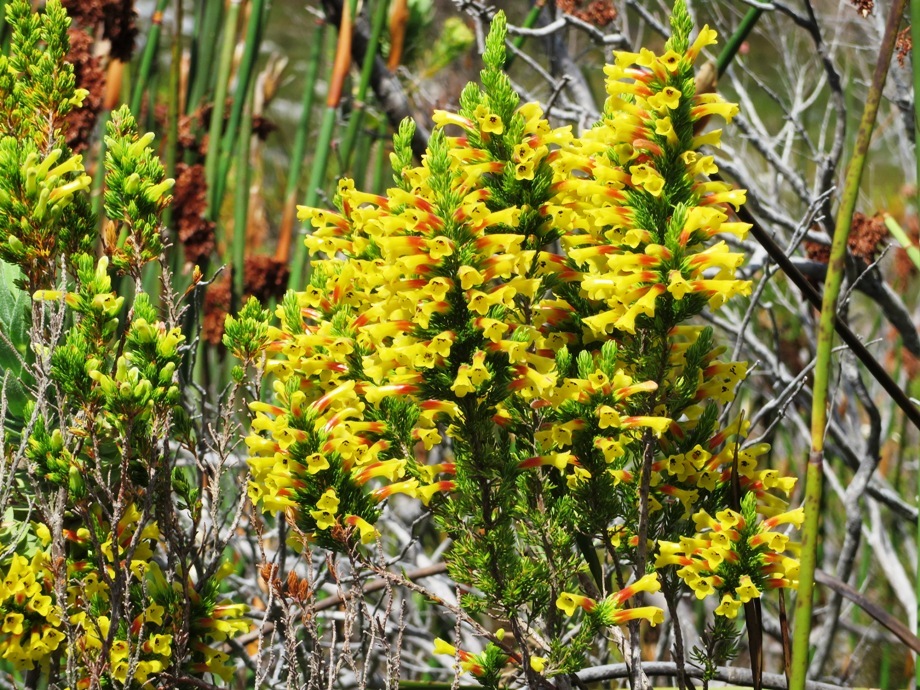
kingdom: Plantae
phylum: Tracheophyta
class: Magnoliopsida
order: Ericales
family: Ericaceae
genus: Erica
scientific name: Erica macowanii
